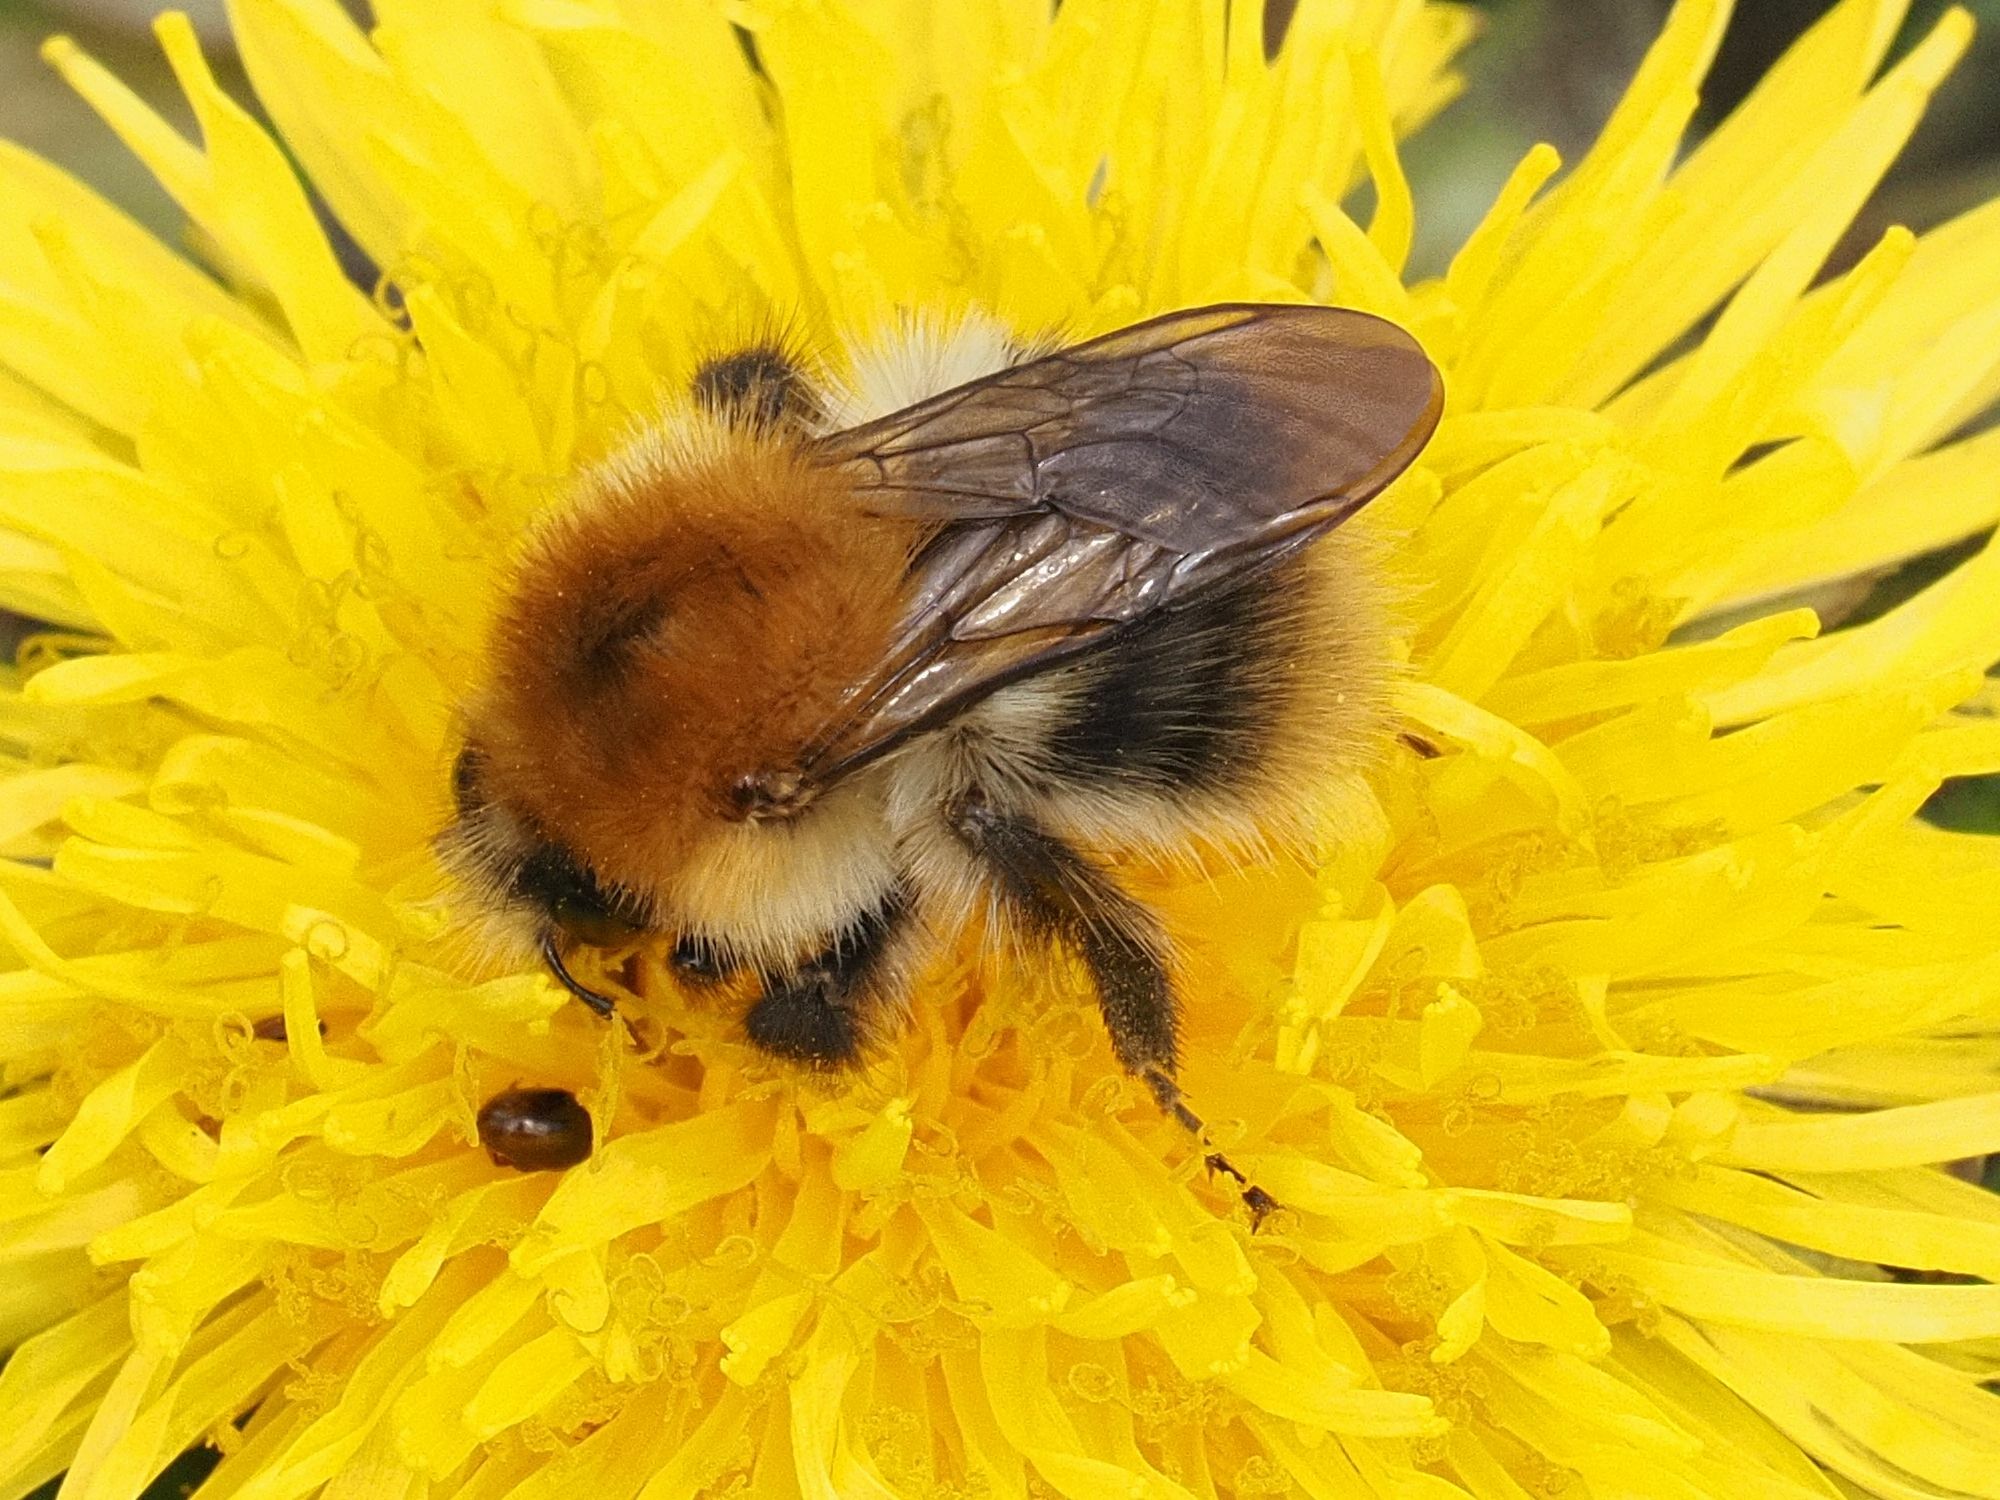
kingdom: Animalia
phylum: Arthropoda
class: Insecta
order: Hymenoptera
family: Apidae
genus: Bombus
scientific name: Bombus pascuorum
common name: Common carder bee
